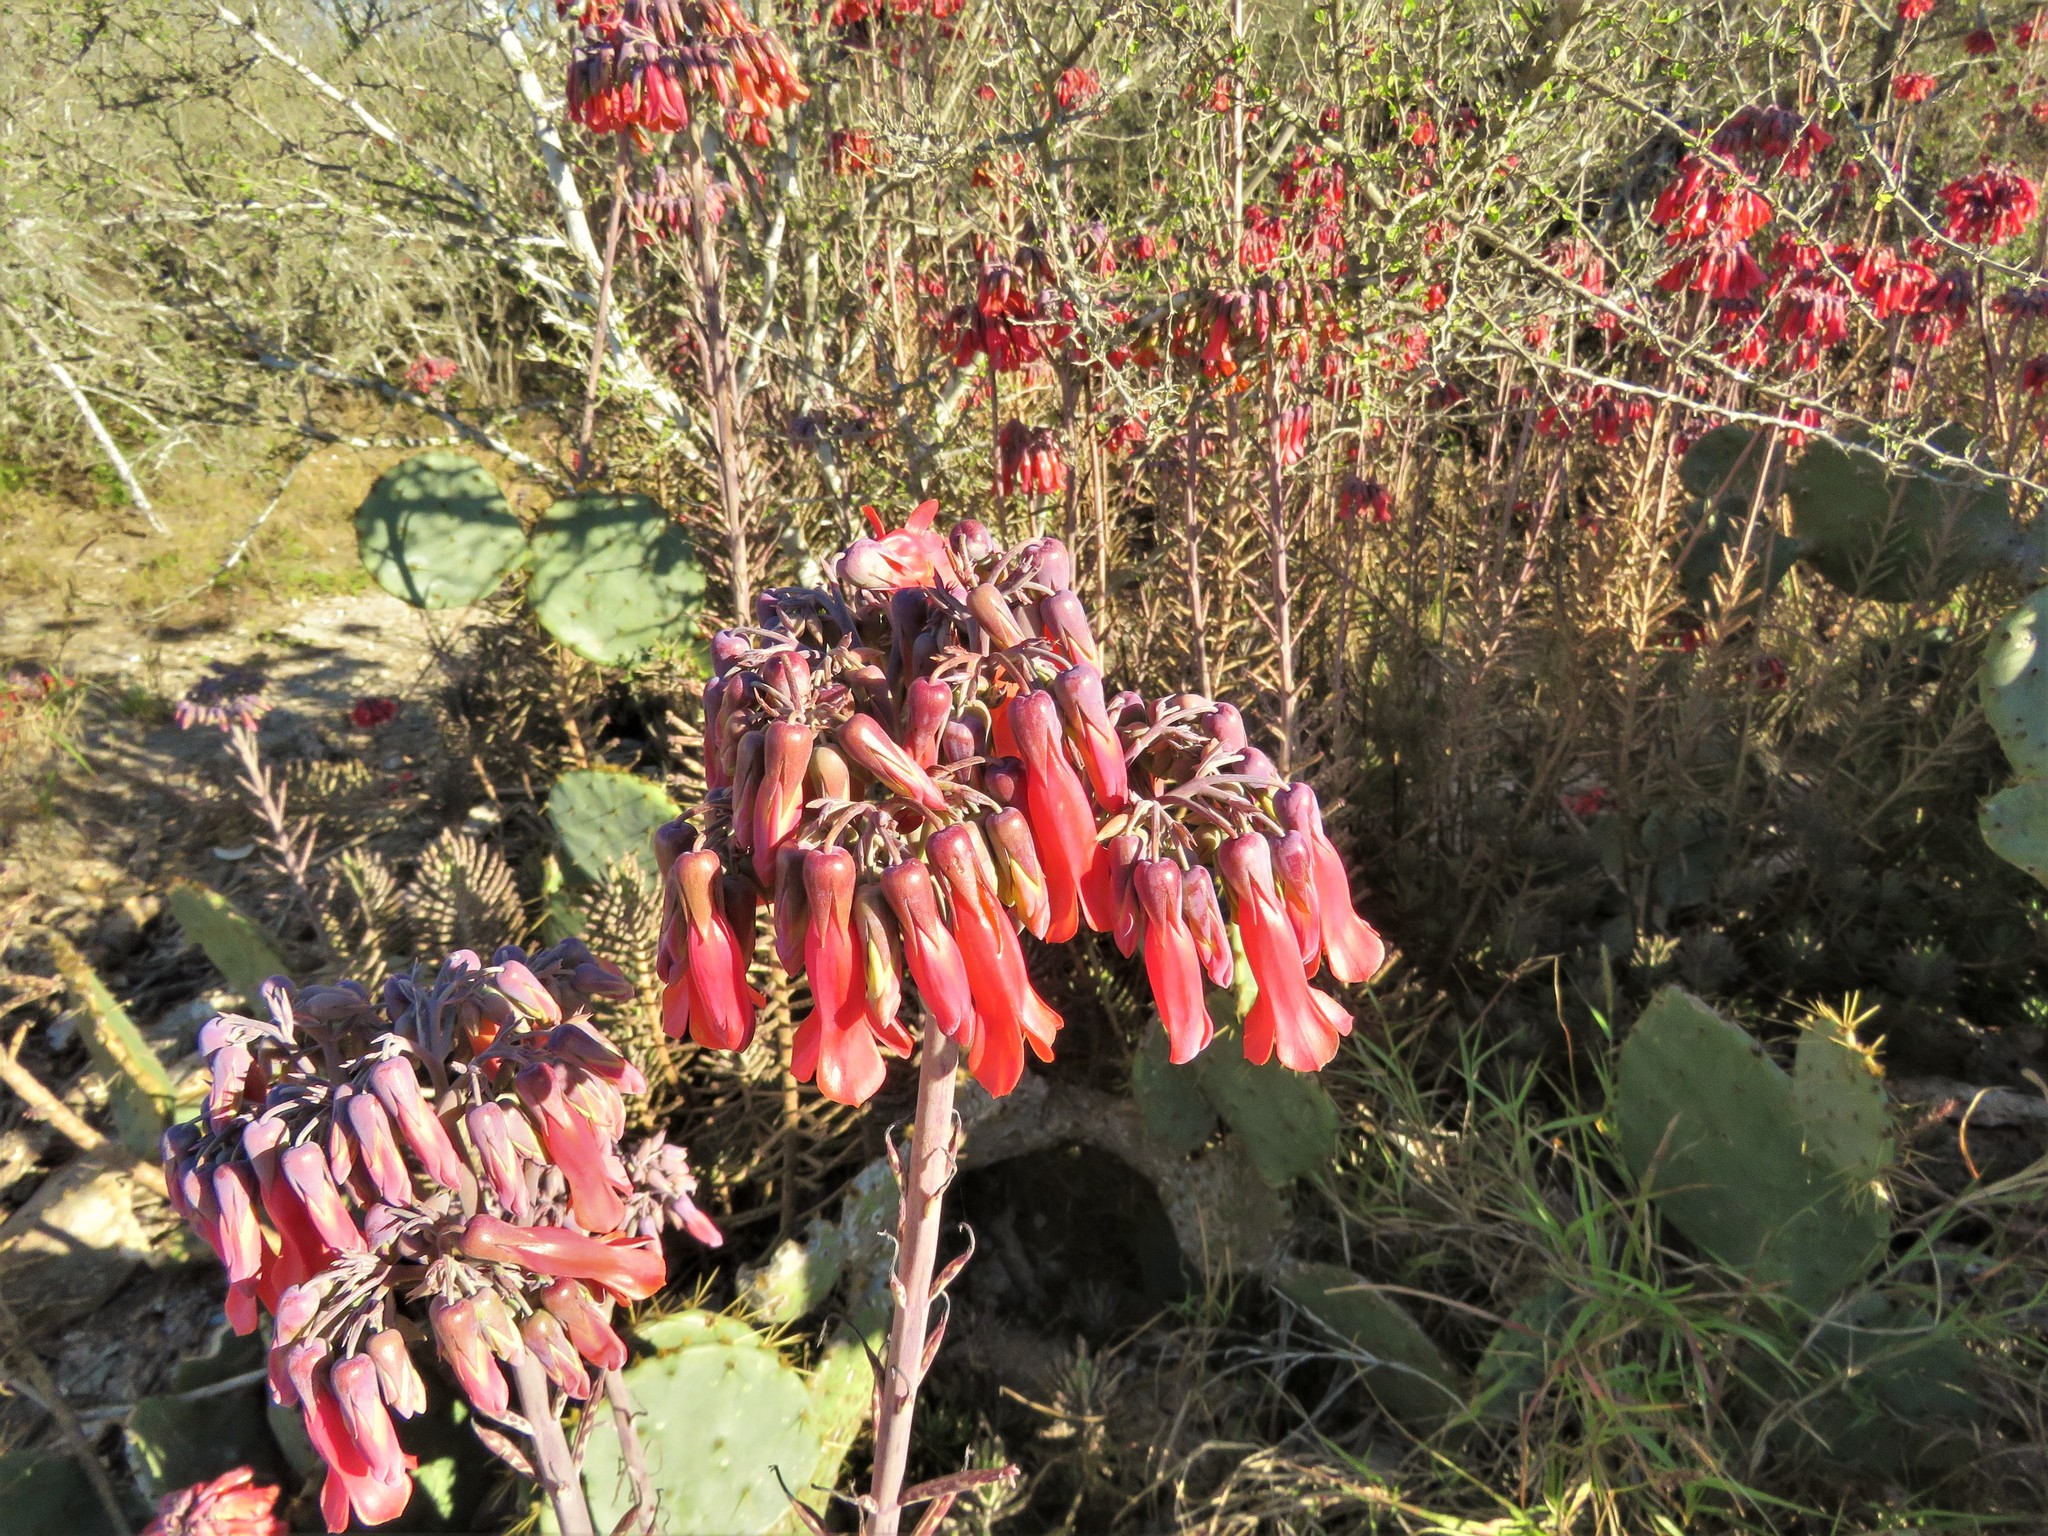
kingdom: Plantae
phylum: Tracheophyta
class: Magnoliopsida
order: Saxifragales
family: Crassulaceae
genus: Kalanchoe
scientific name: Kalanchoe delagoensis
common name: Chandelier plant
